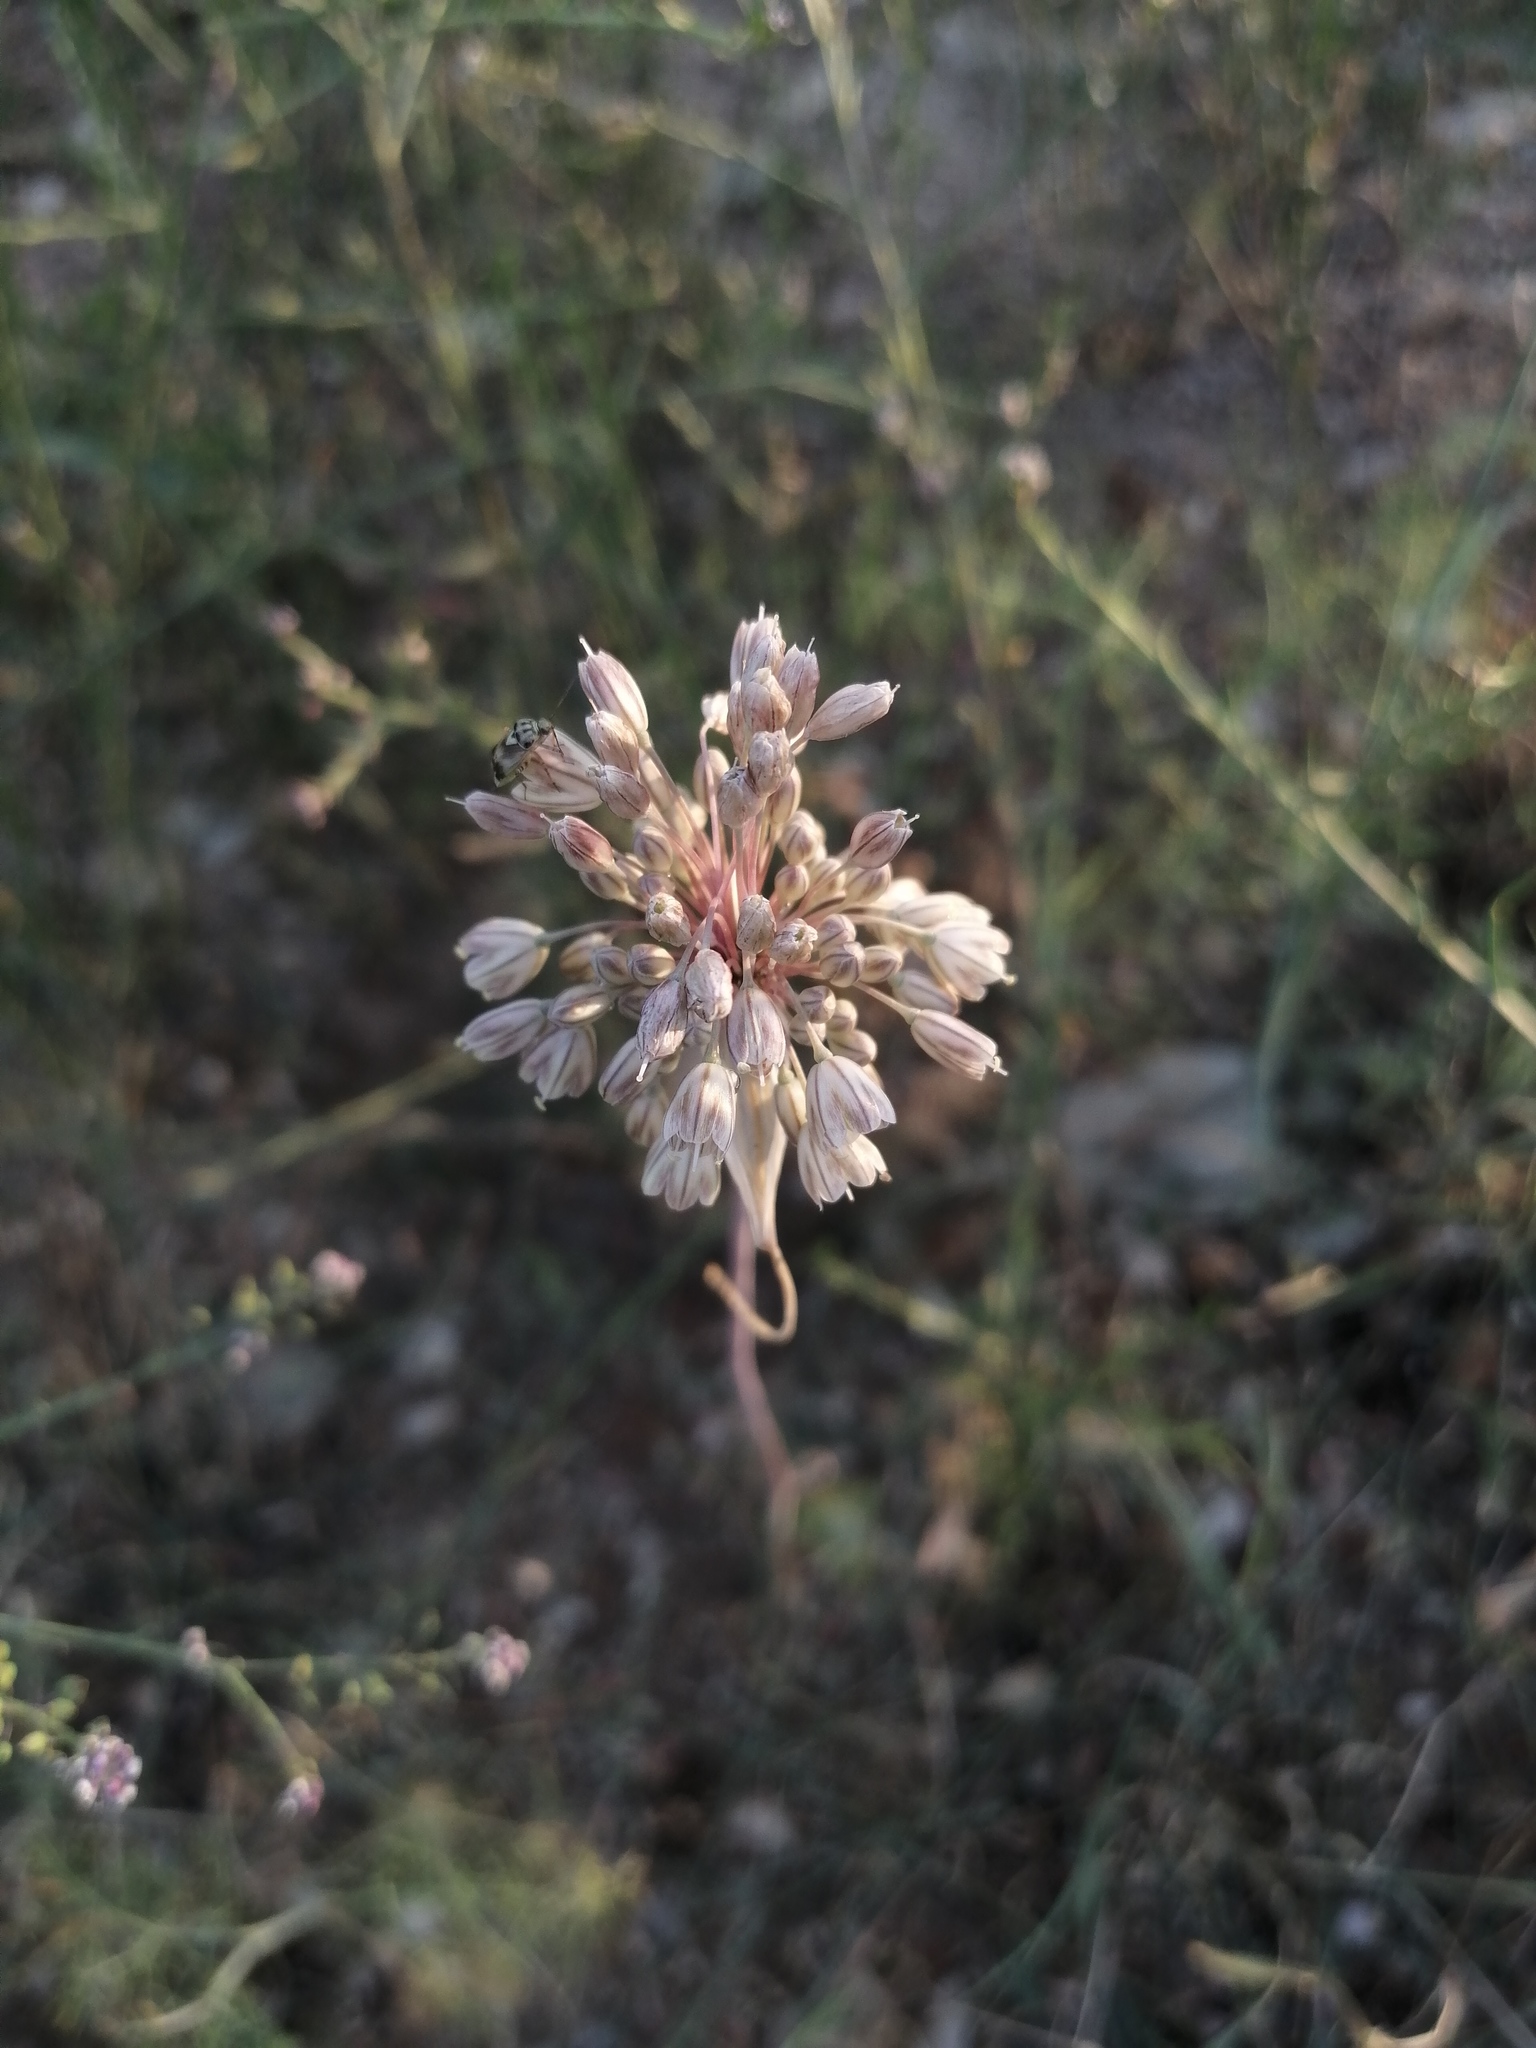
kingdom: Plantae
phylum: Tracheophyta
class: Liliopsida
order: Asparagales
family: Amaryllidaceae
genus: Allium
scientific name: Allium tenuiflorum
